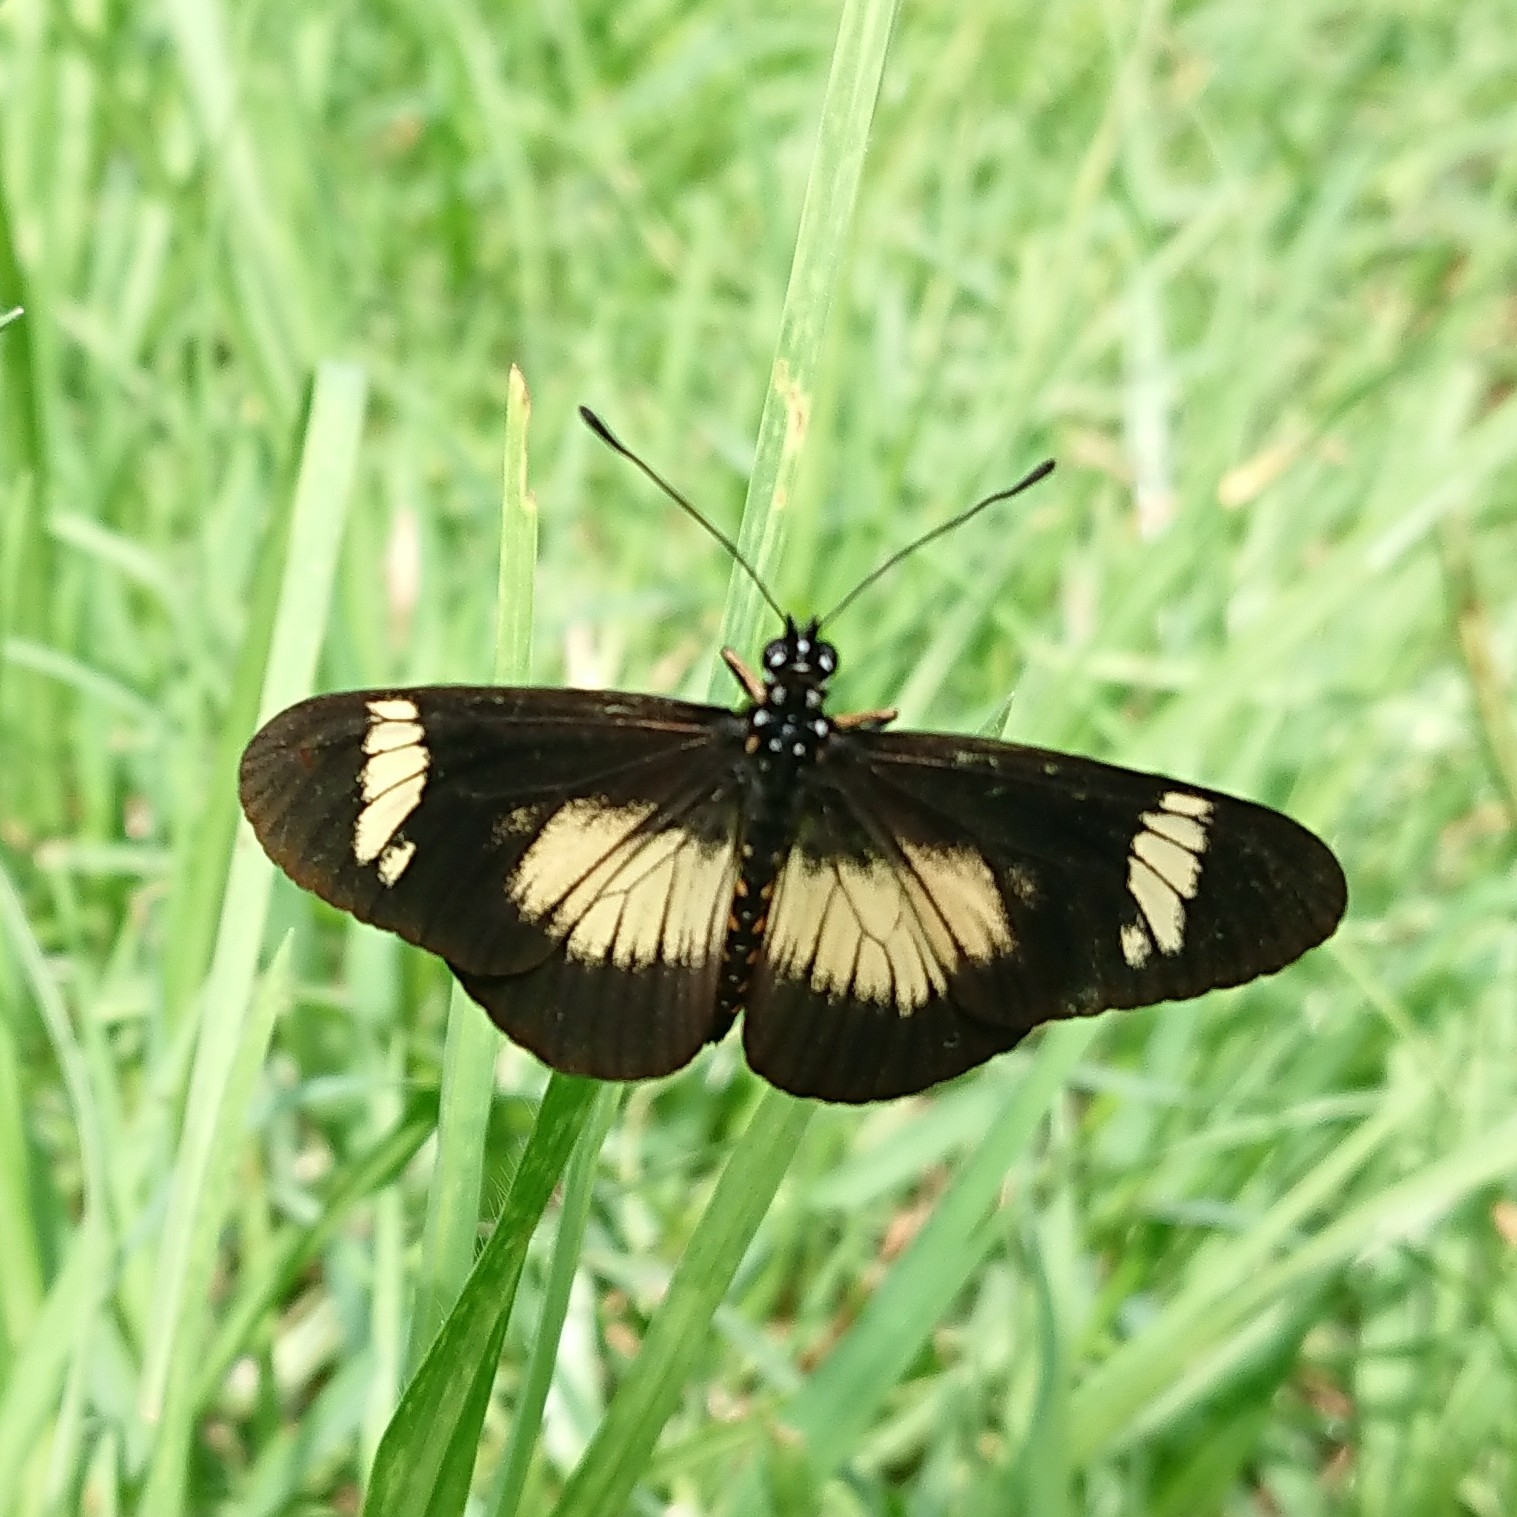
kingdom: Animalia
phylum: Arthropoda
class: Insecta
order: Lepidoptera
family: Nymphalidae
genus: Acraea
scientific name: Acraea esebria
